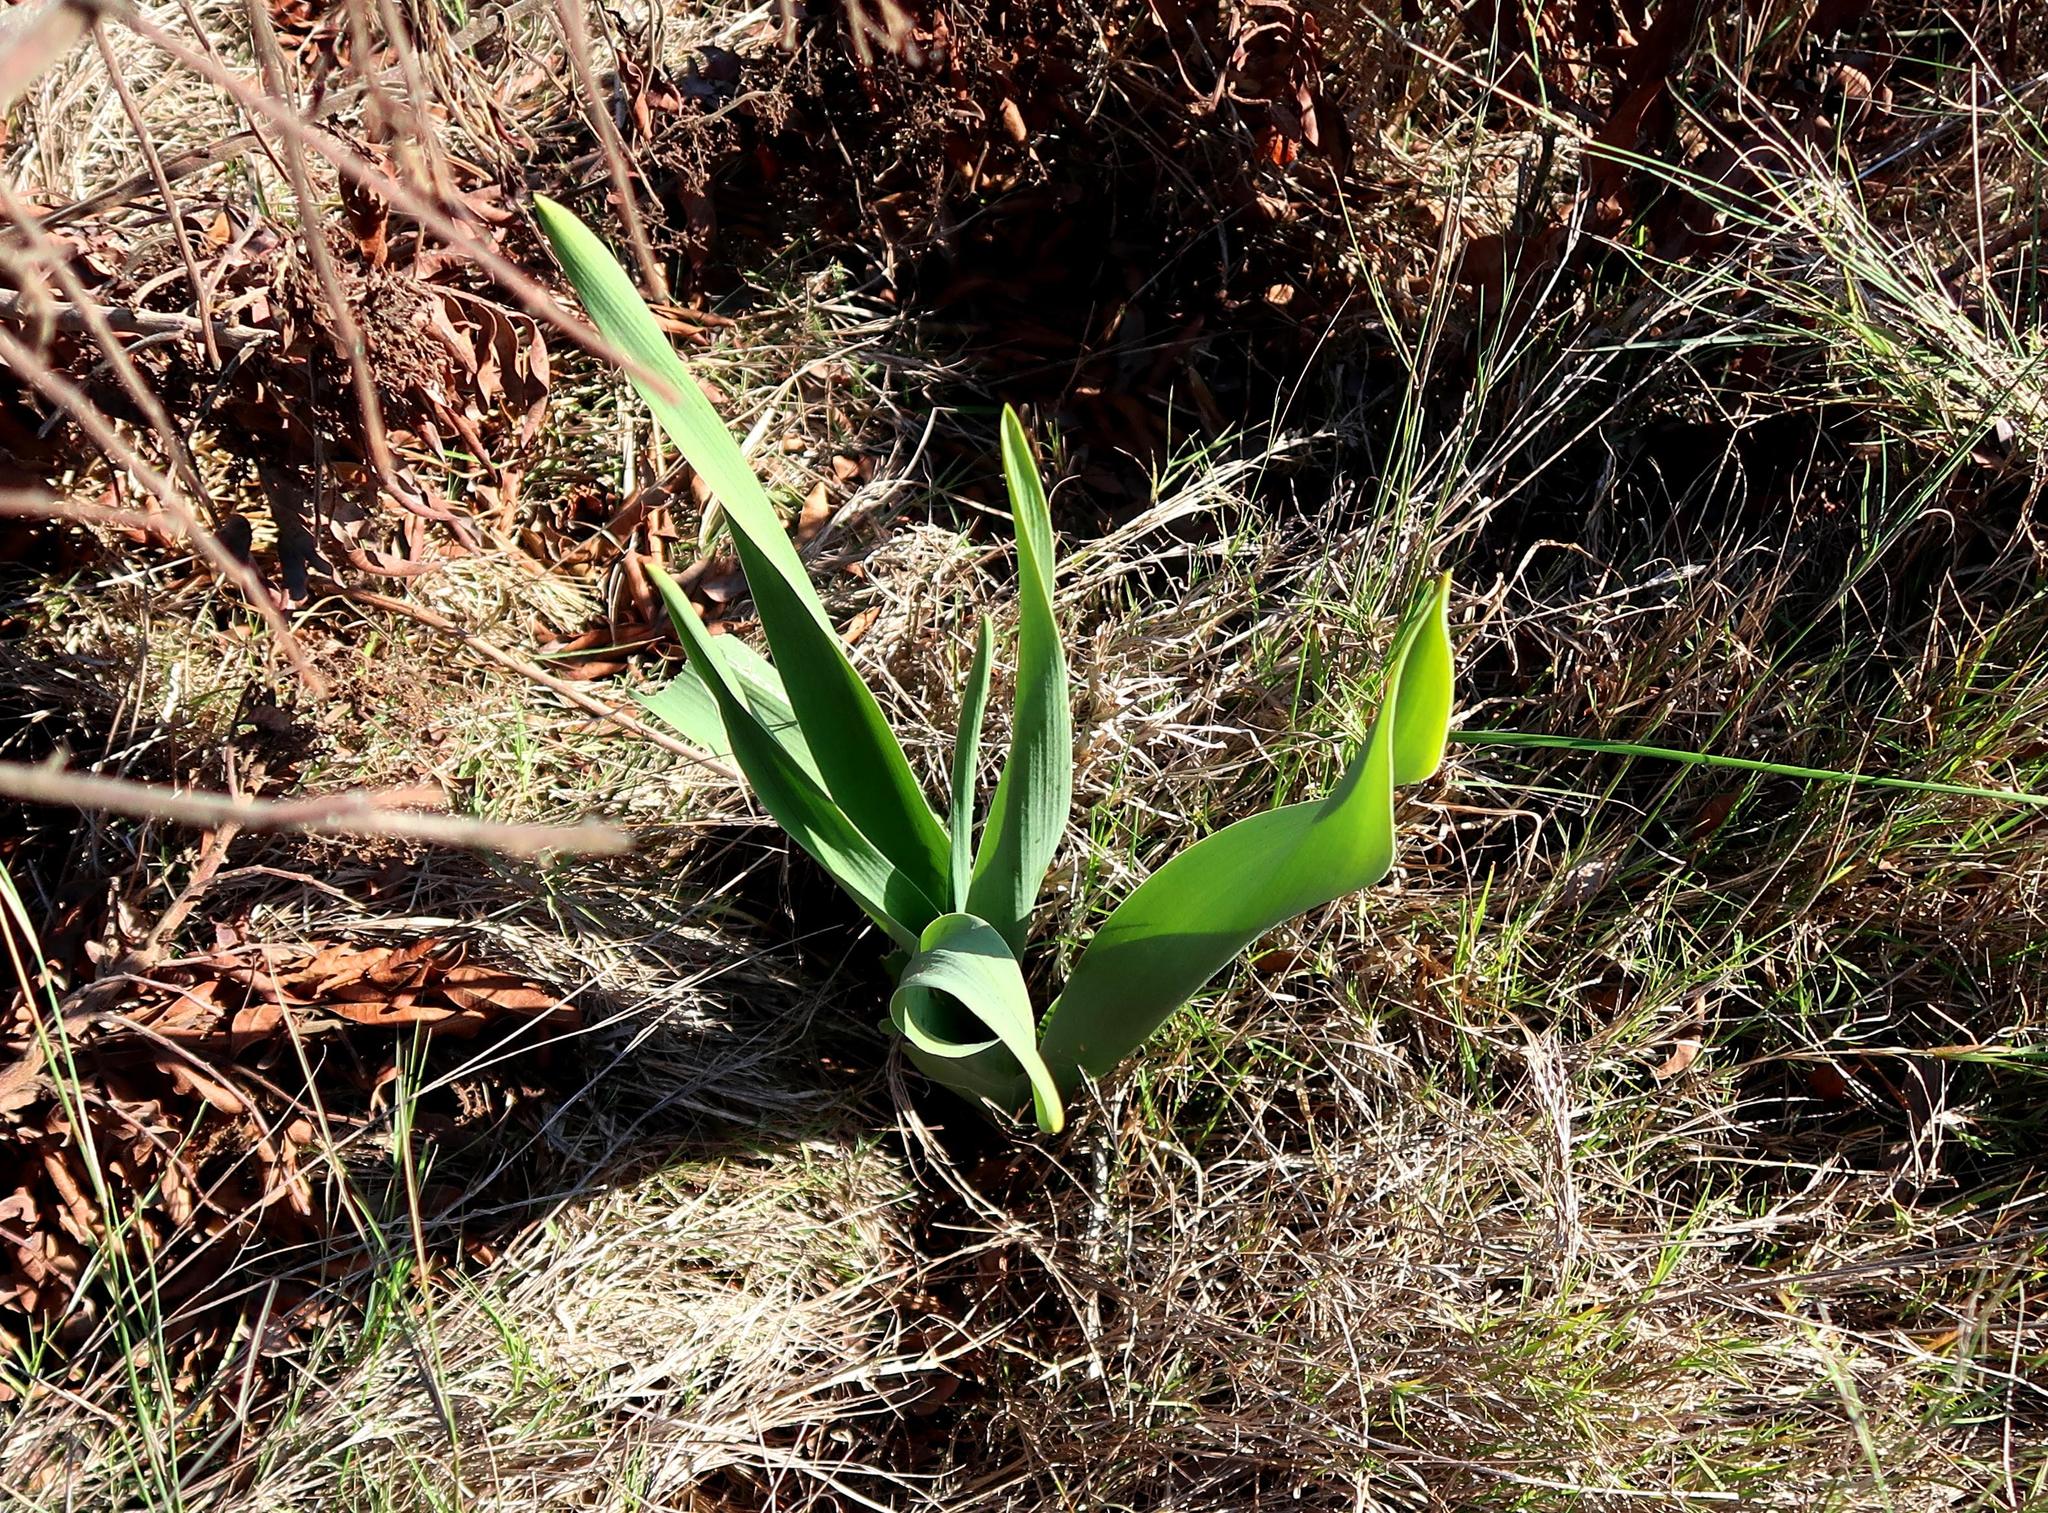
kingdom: Plantae
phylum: Tracheophyta
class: Liliopsida
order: Asparagales
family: Asparagaceae
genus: Drimia
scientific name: Drimia capensis
